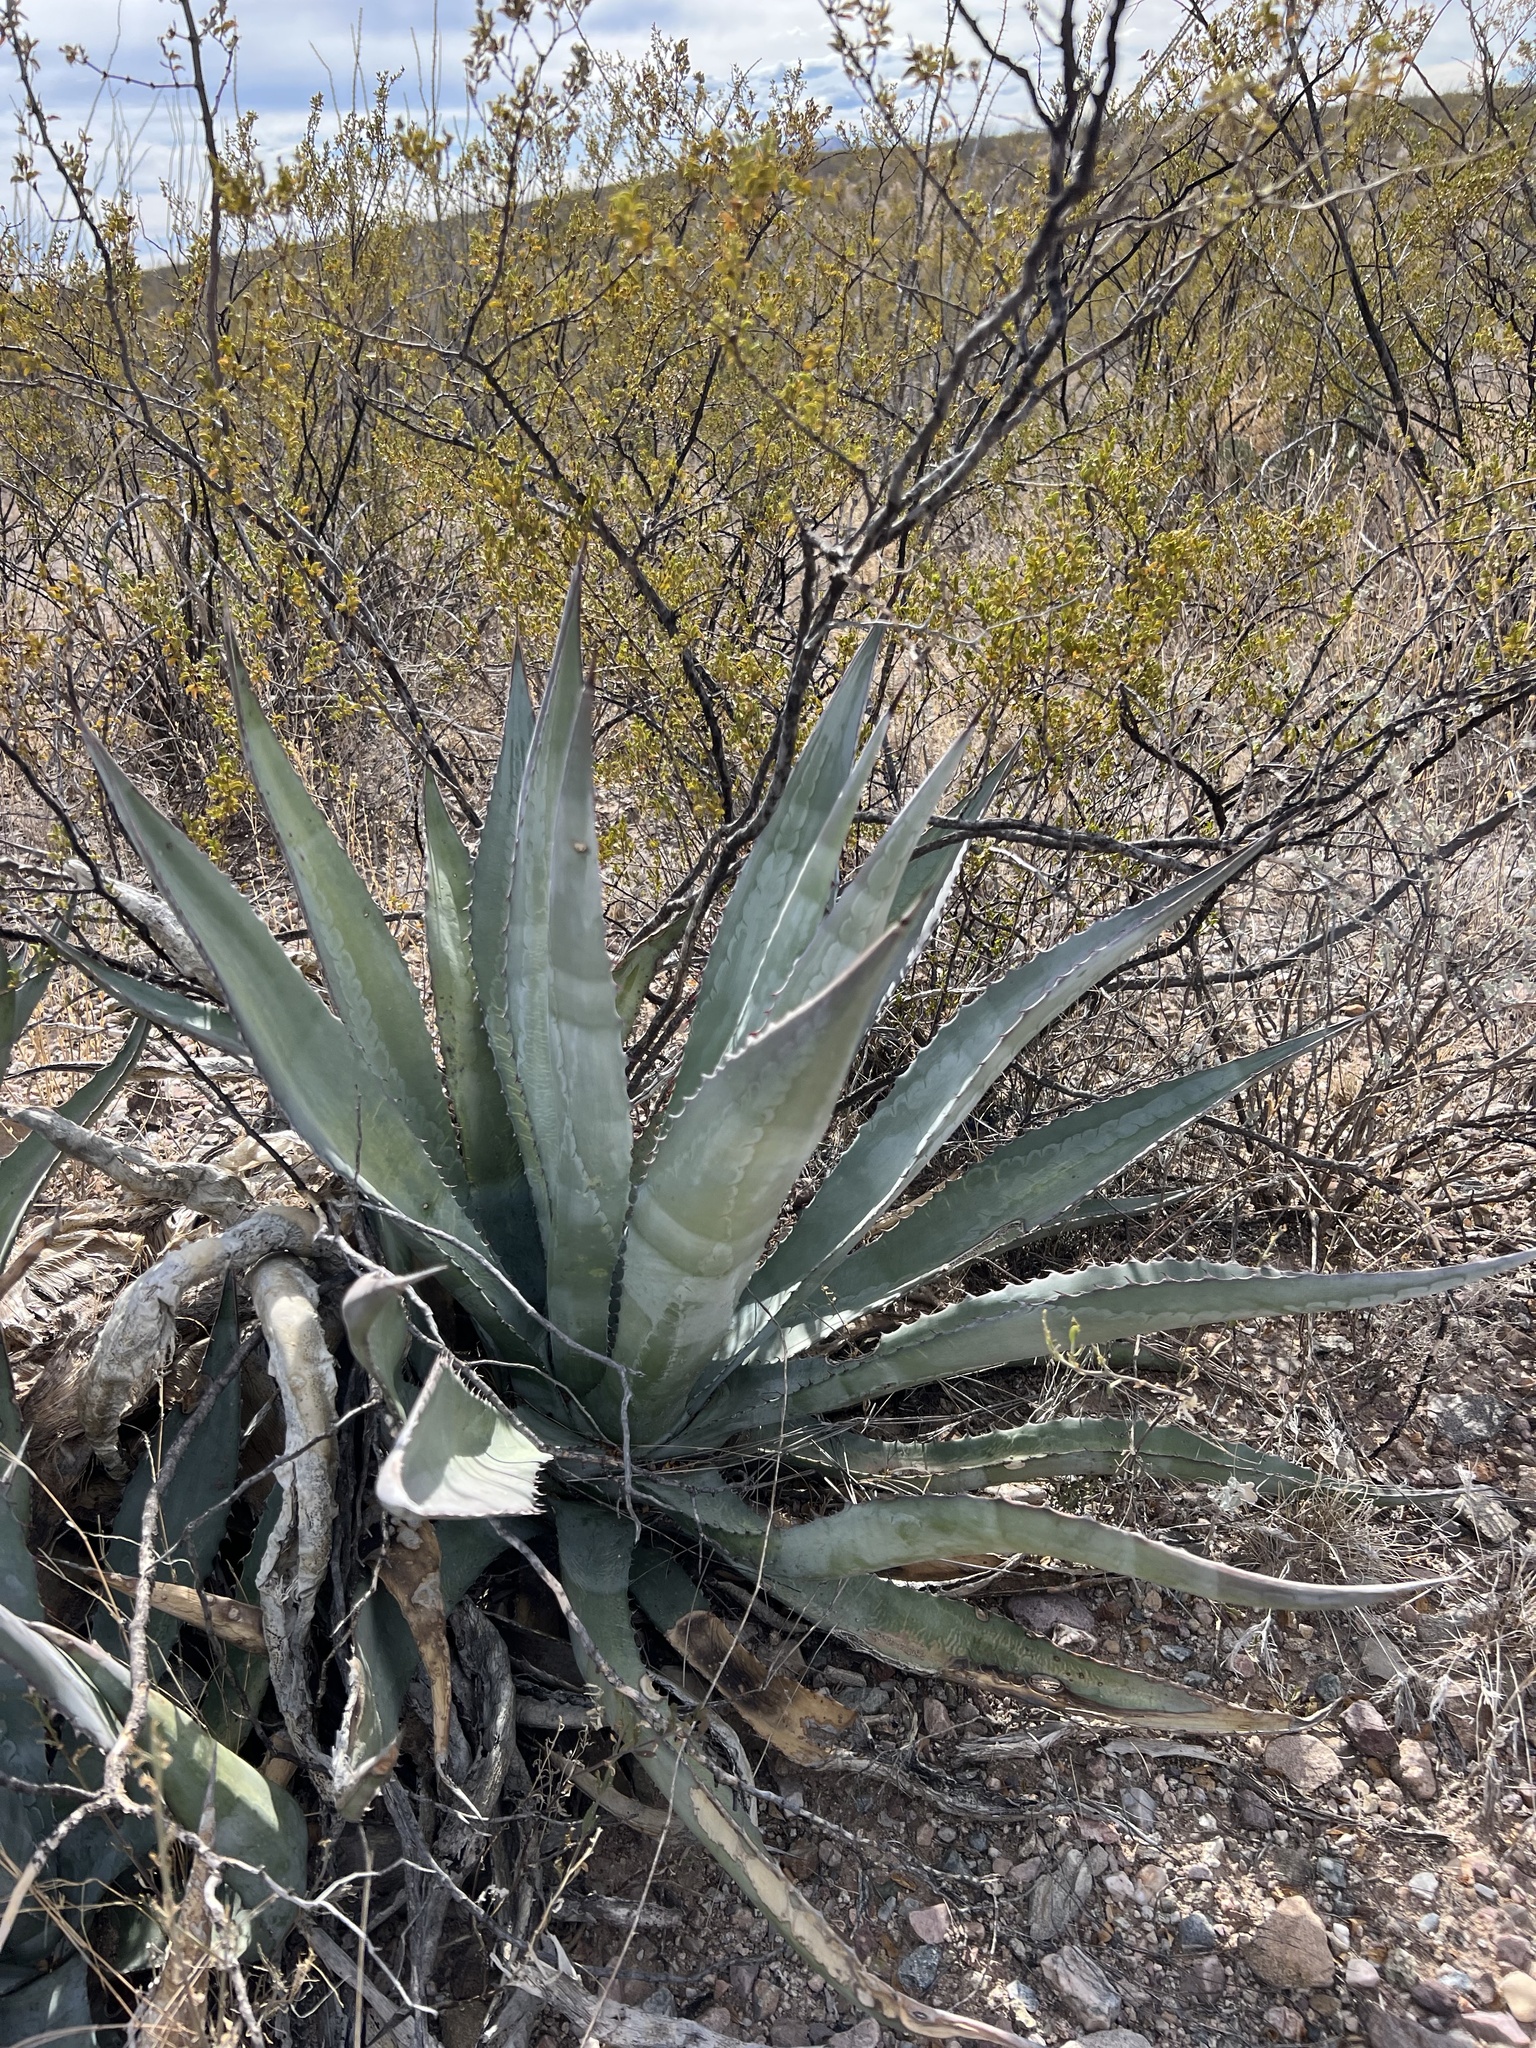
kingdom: Plantae
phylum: Tracheophyta
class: Liliopsida
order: Asparagales
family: Asparagaceae
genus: Agave
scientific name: Agave palmeri
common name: Palmer agave
